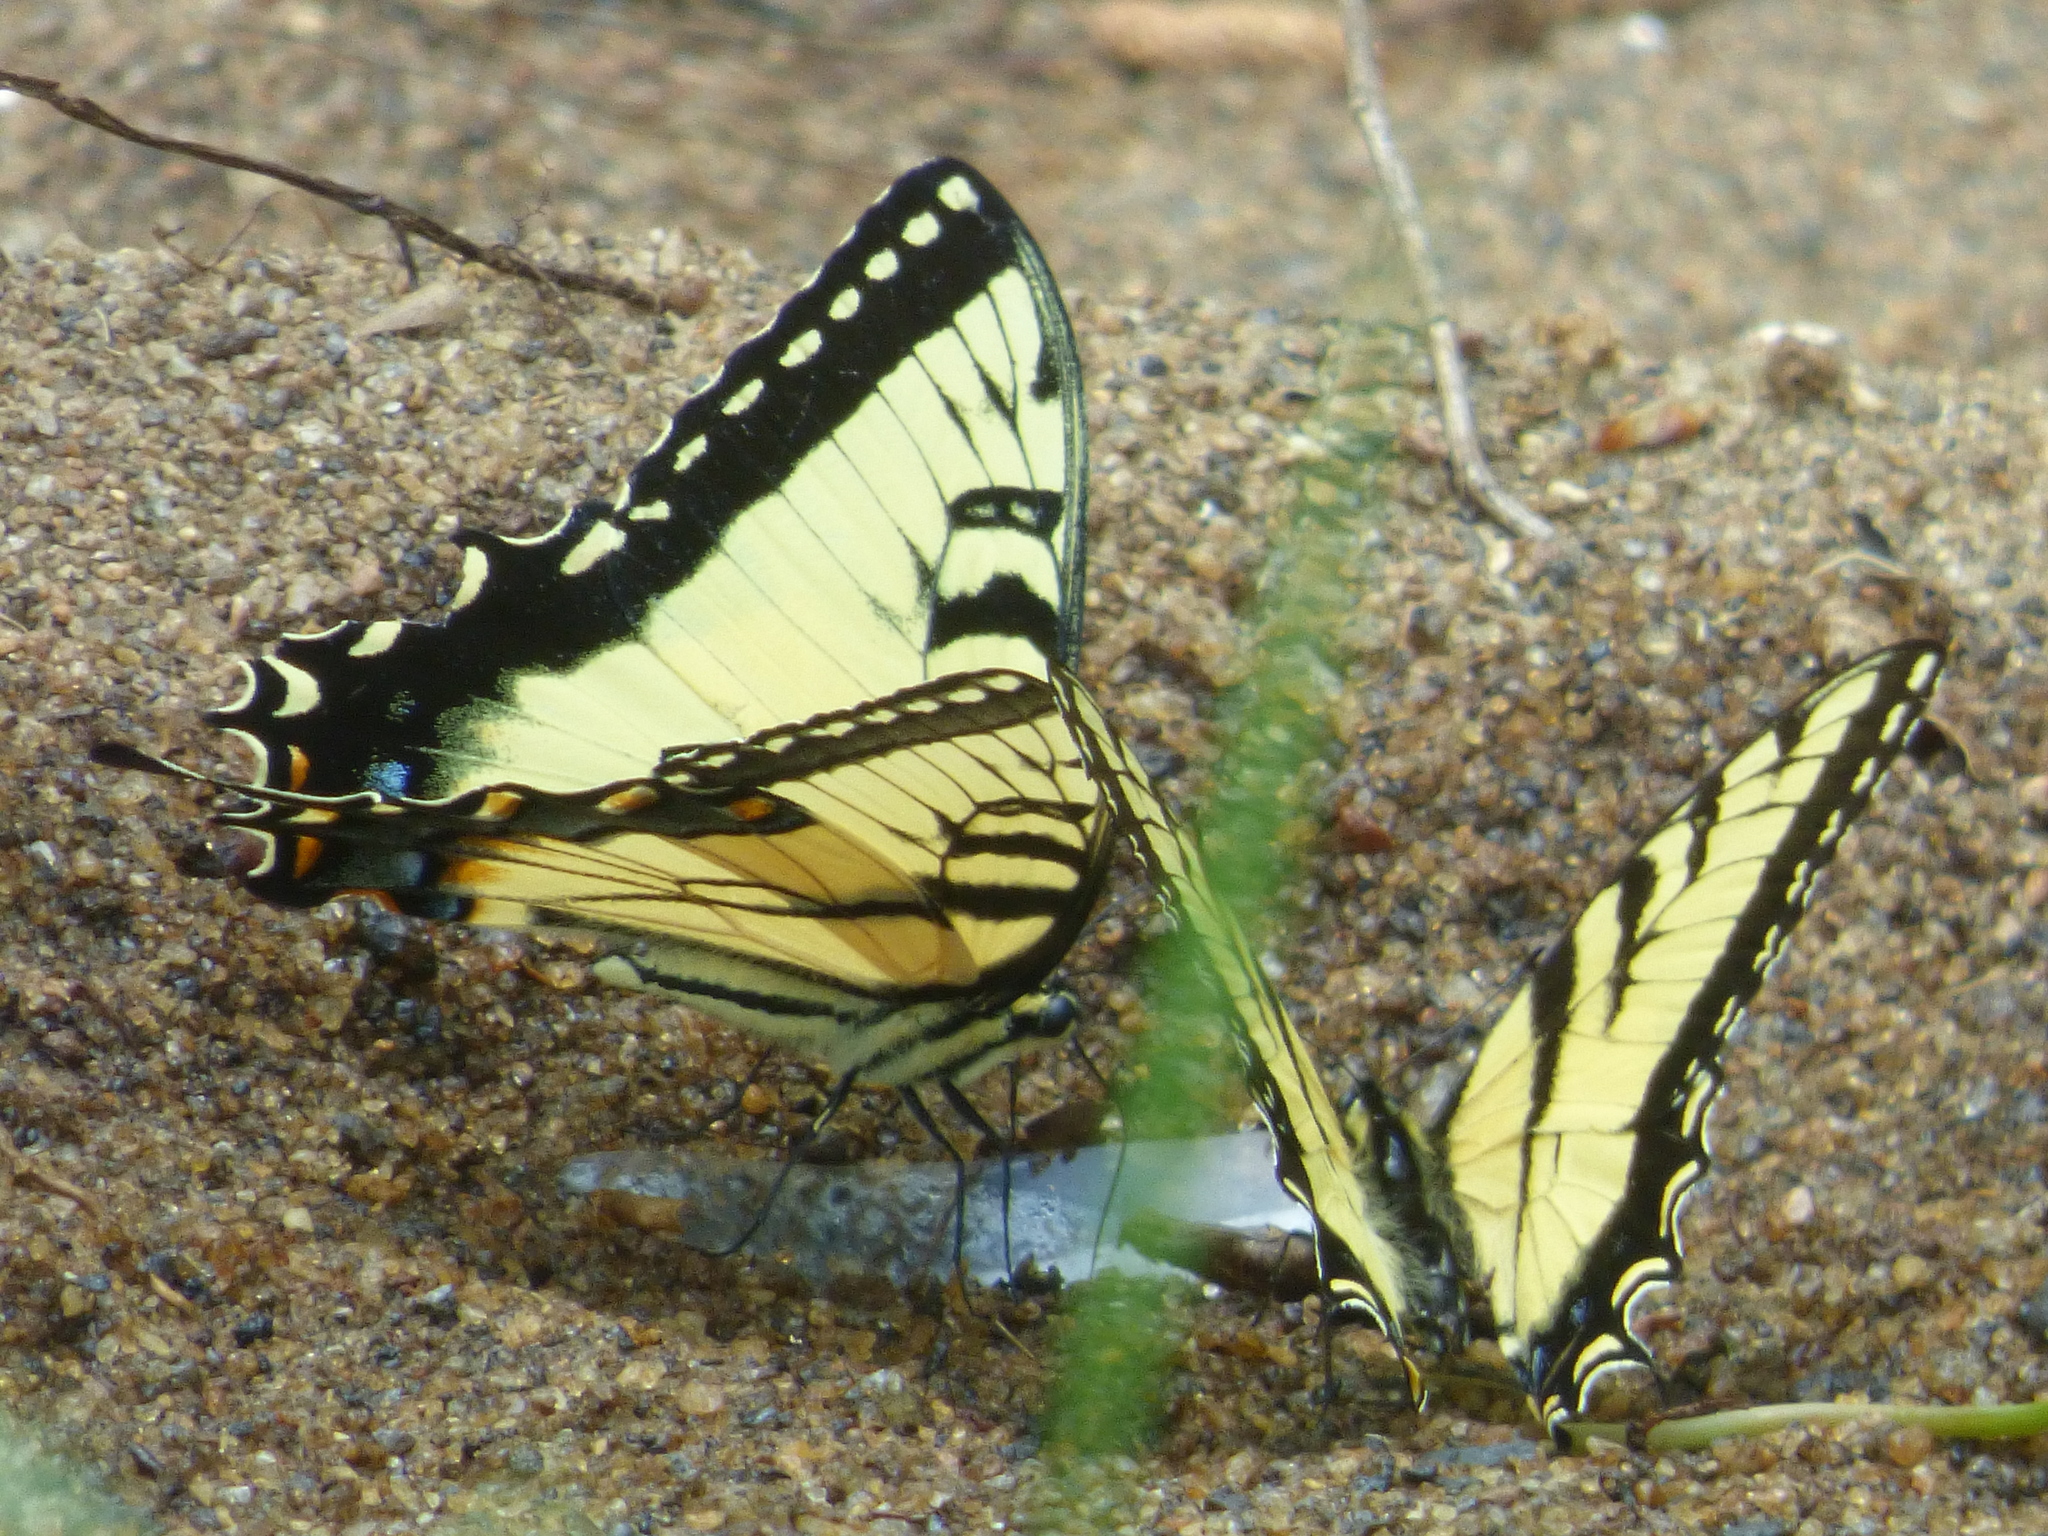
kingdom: Animalia
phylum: Arthropoda
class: Insecta
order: Lepidoptera
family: Papilionidae
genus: Papilio
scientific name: Papilio glaucus
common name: Tiger swallowtail
